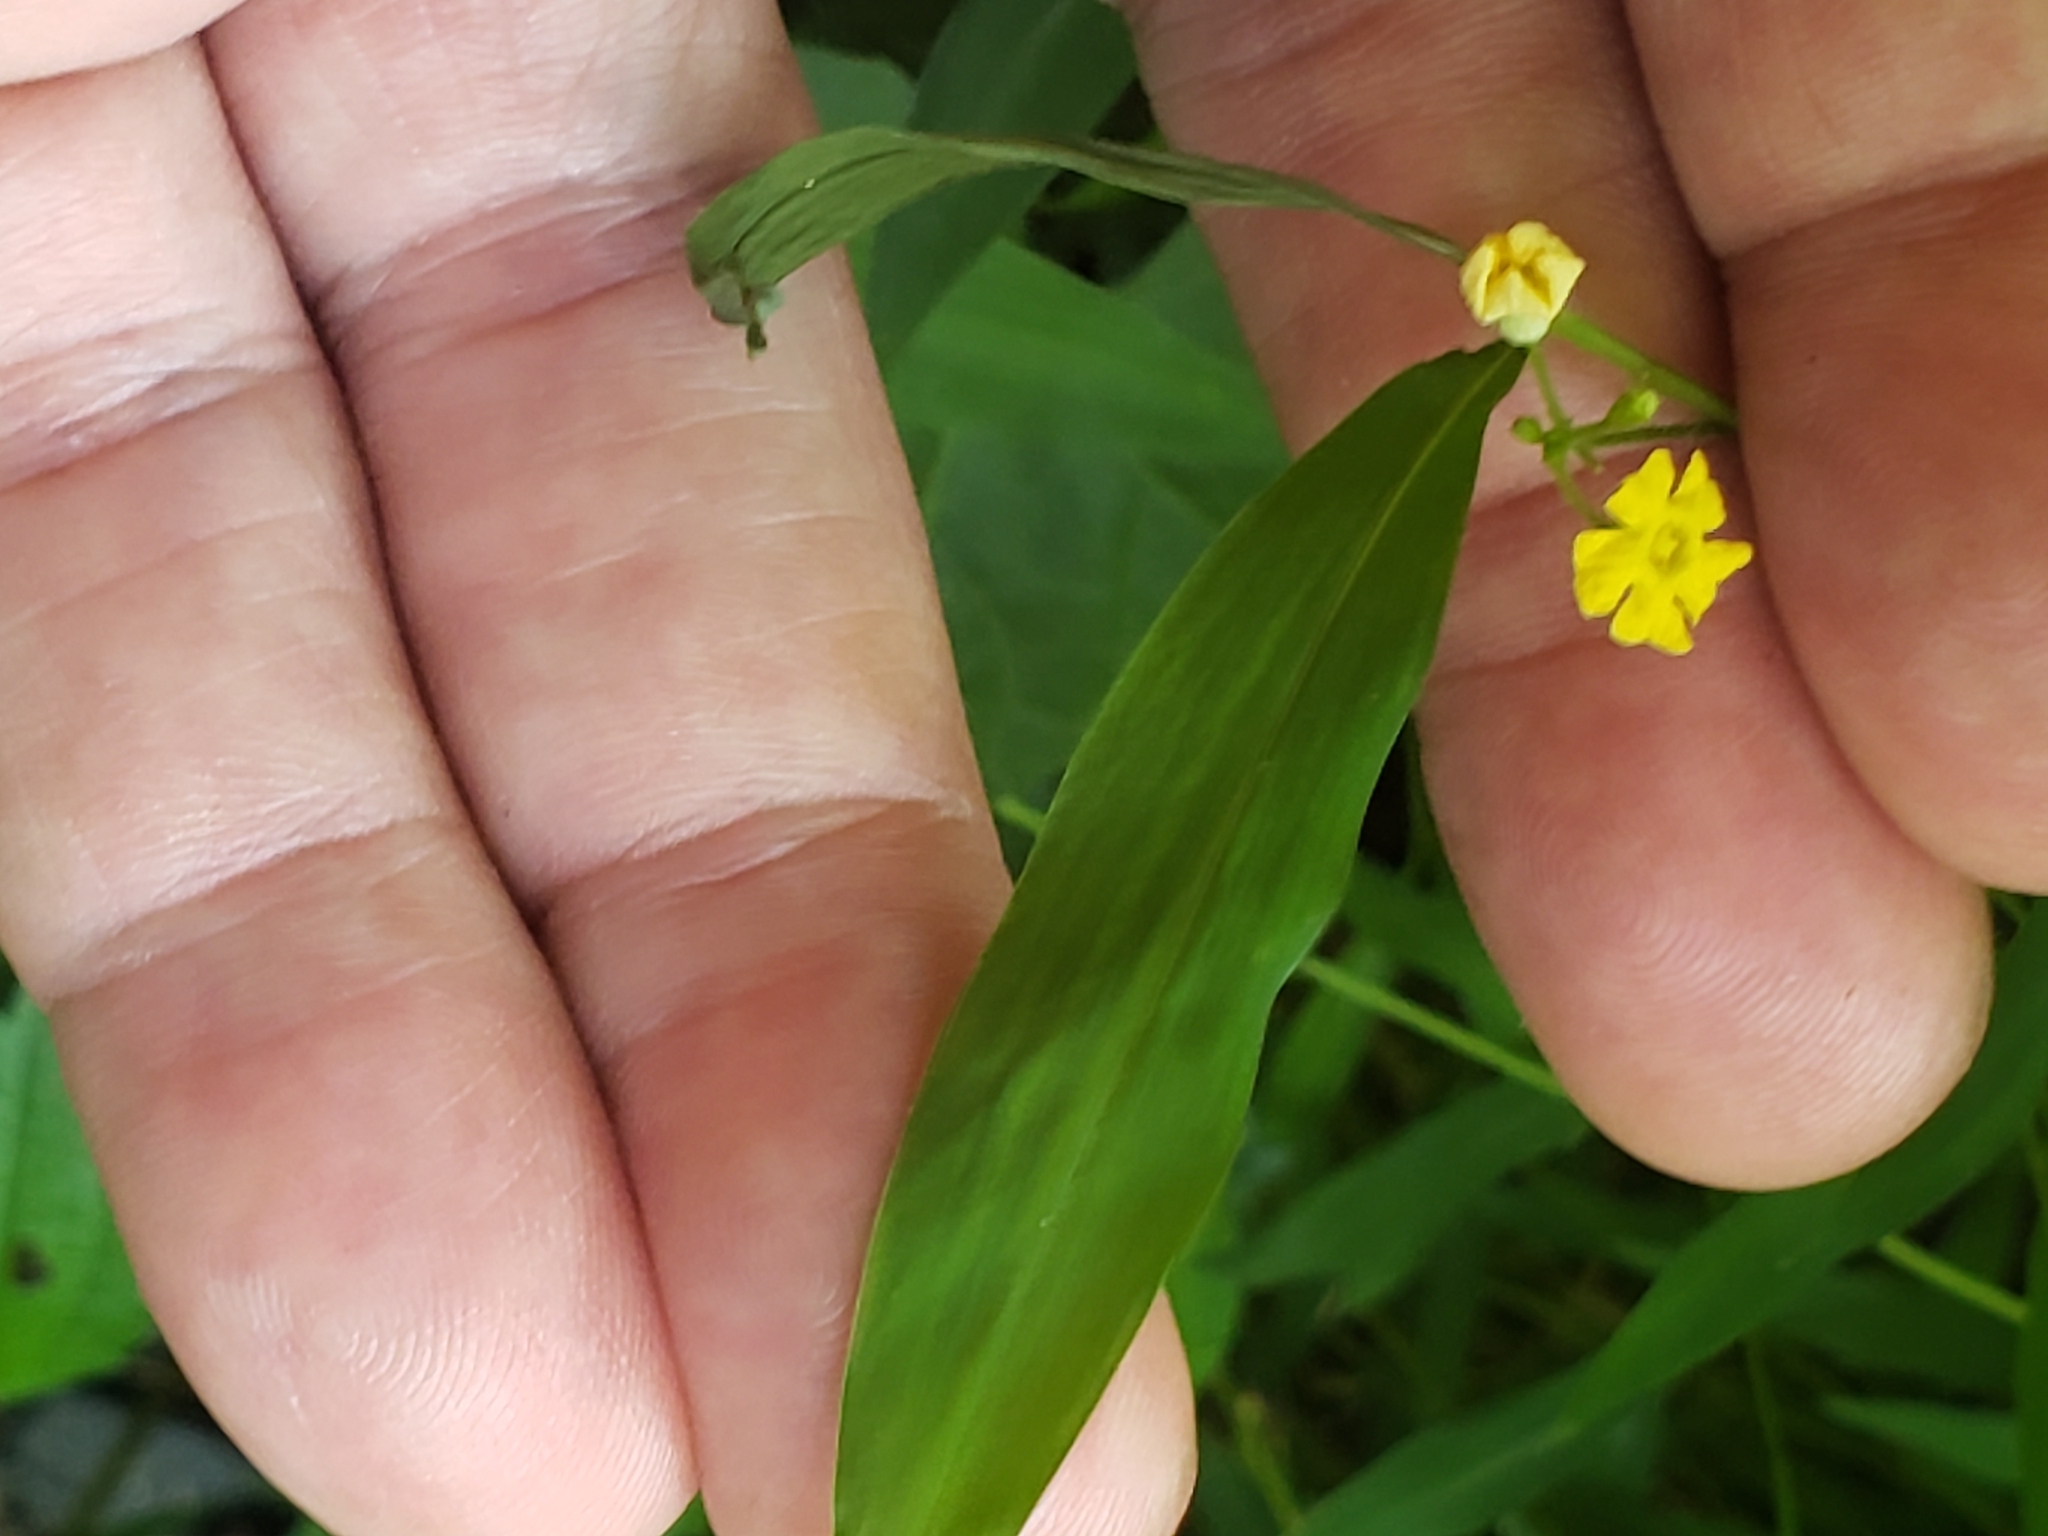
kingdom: Plantae
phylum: Tracheophyta
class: Magnoliopsida
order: Cucurbitales
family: Cucurbitaceae
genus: Melothria
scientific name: Melothria pendula
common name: Creeping-cucumber
